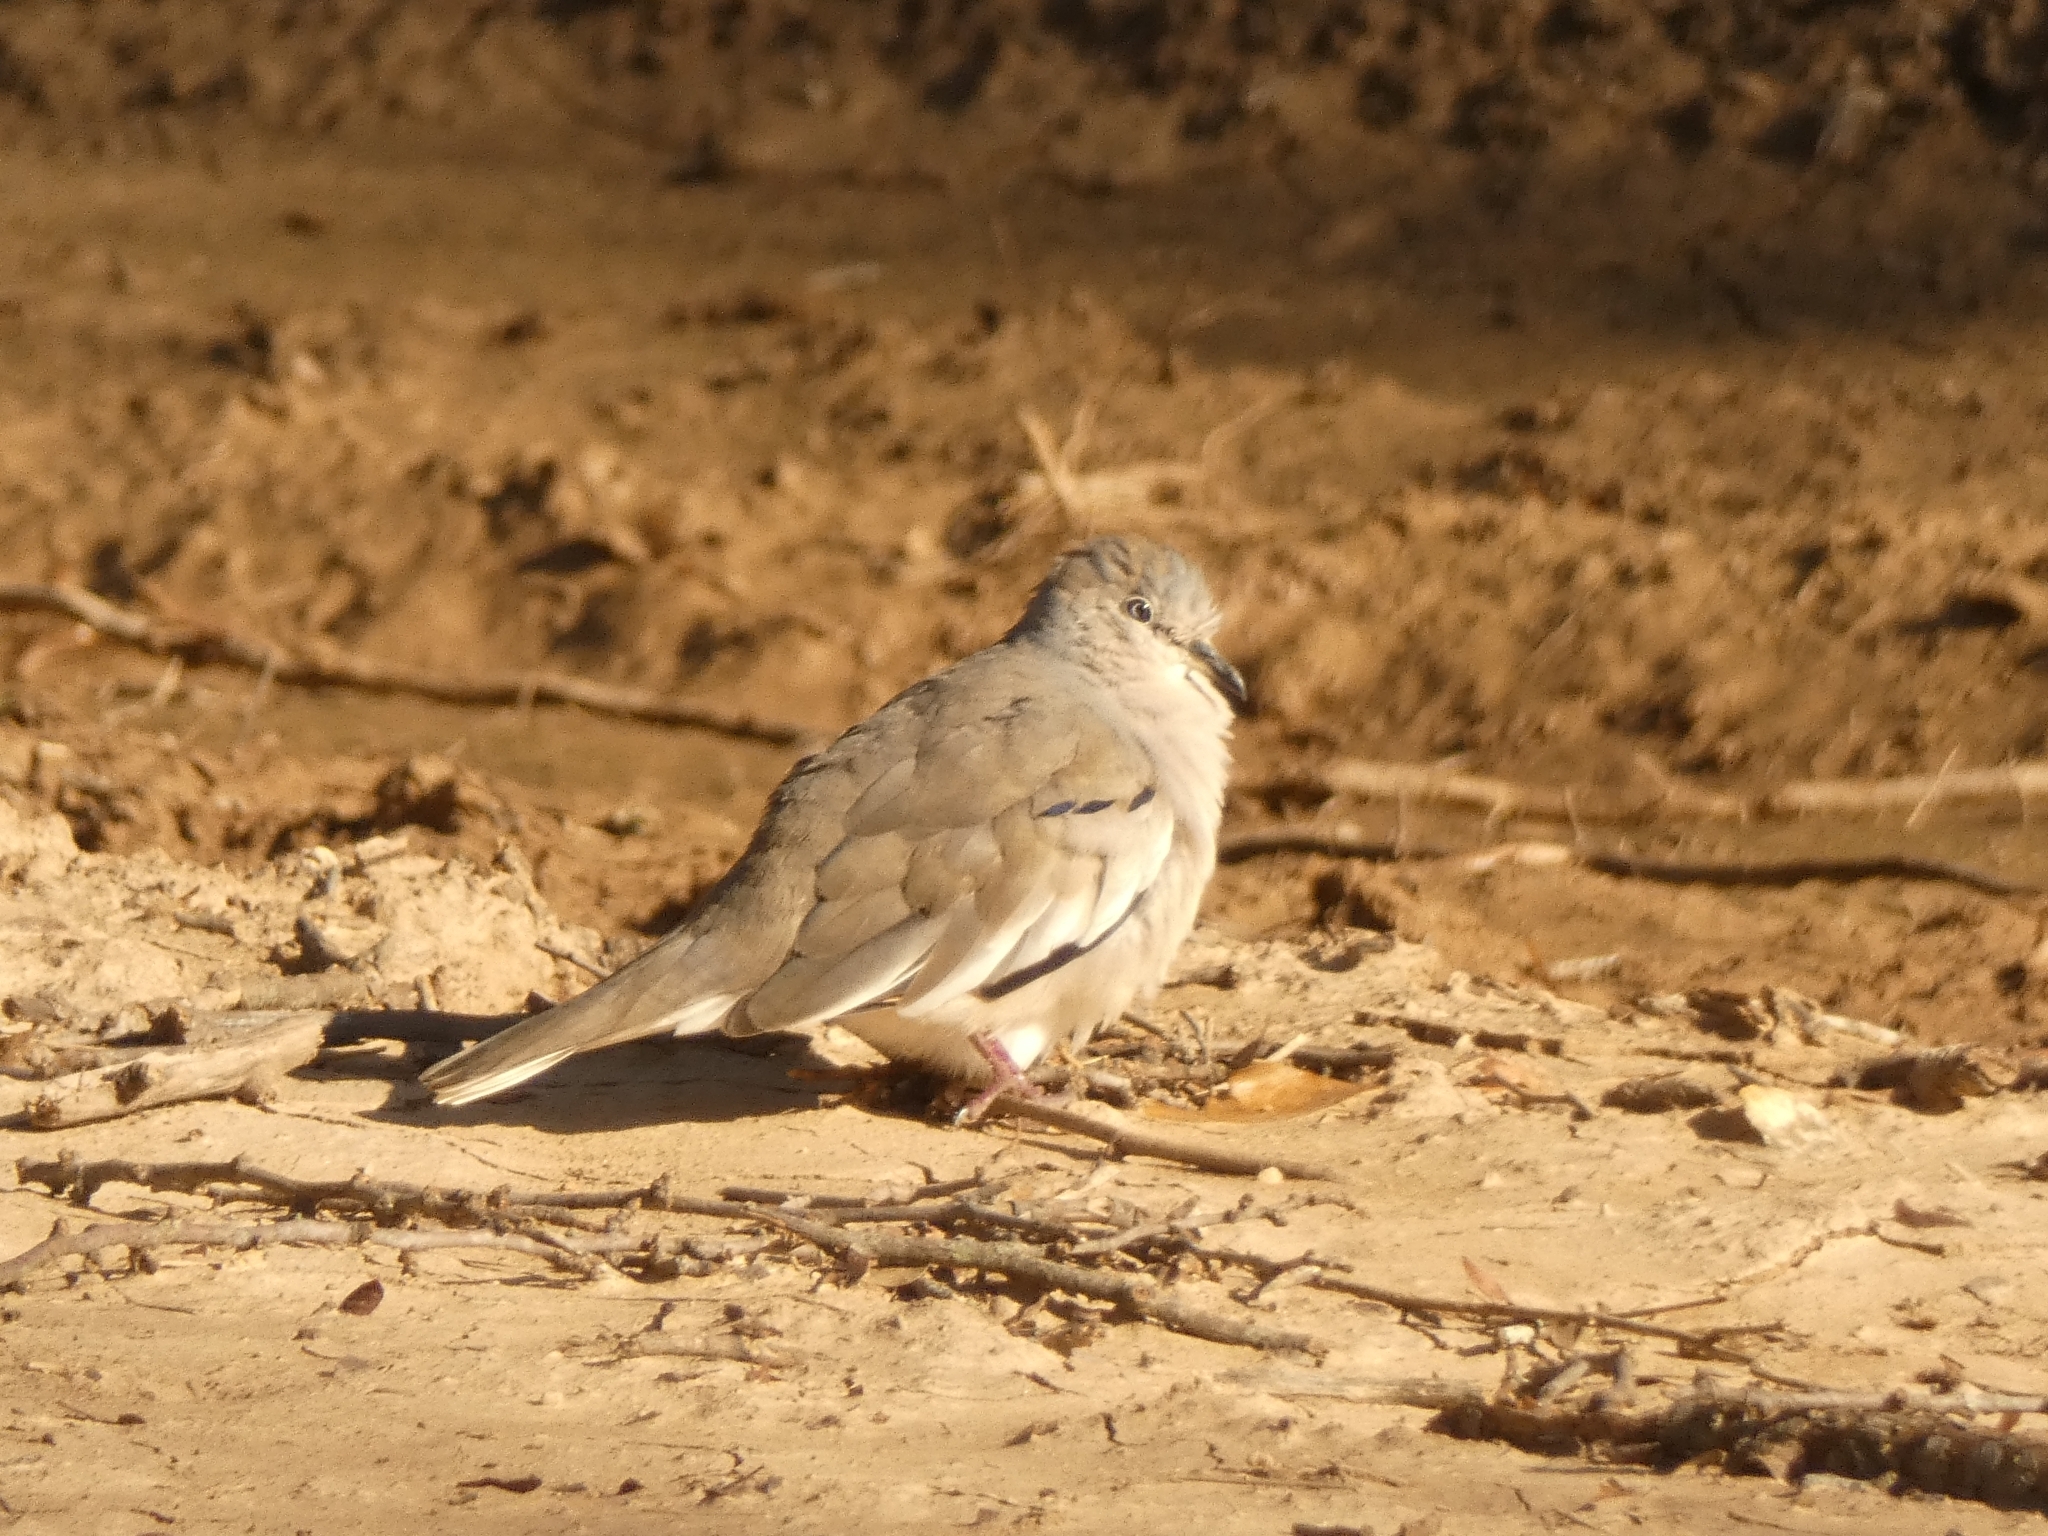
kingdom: Animalia
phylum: Chordata
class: Aves
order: Columbiformes
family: Columbidae
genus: Columbina
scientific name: Columbina picui
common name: Picui ground dove
